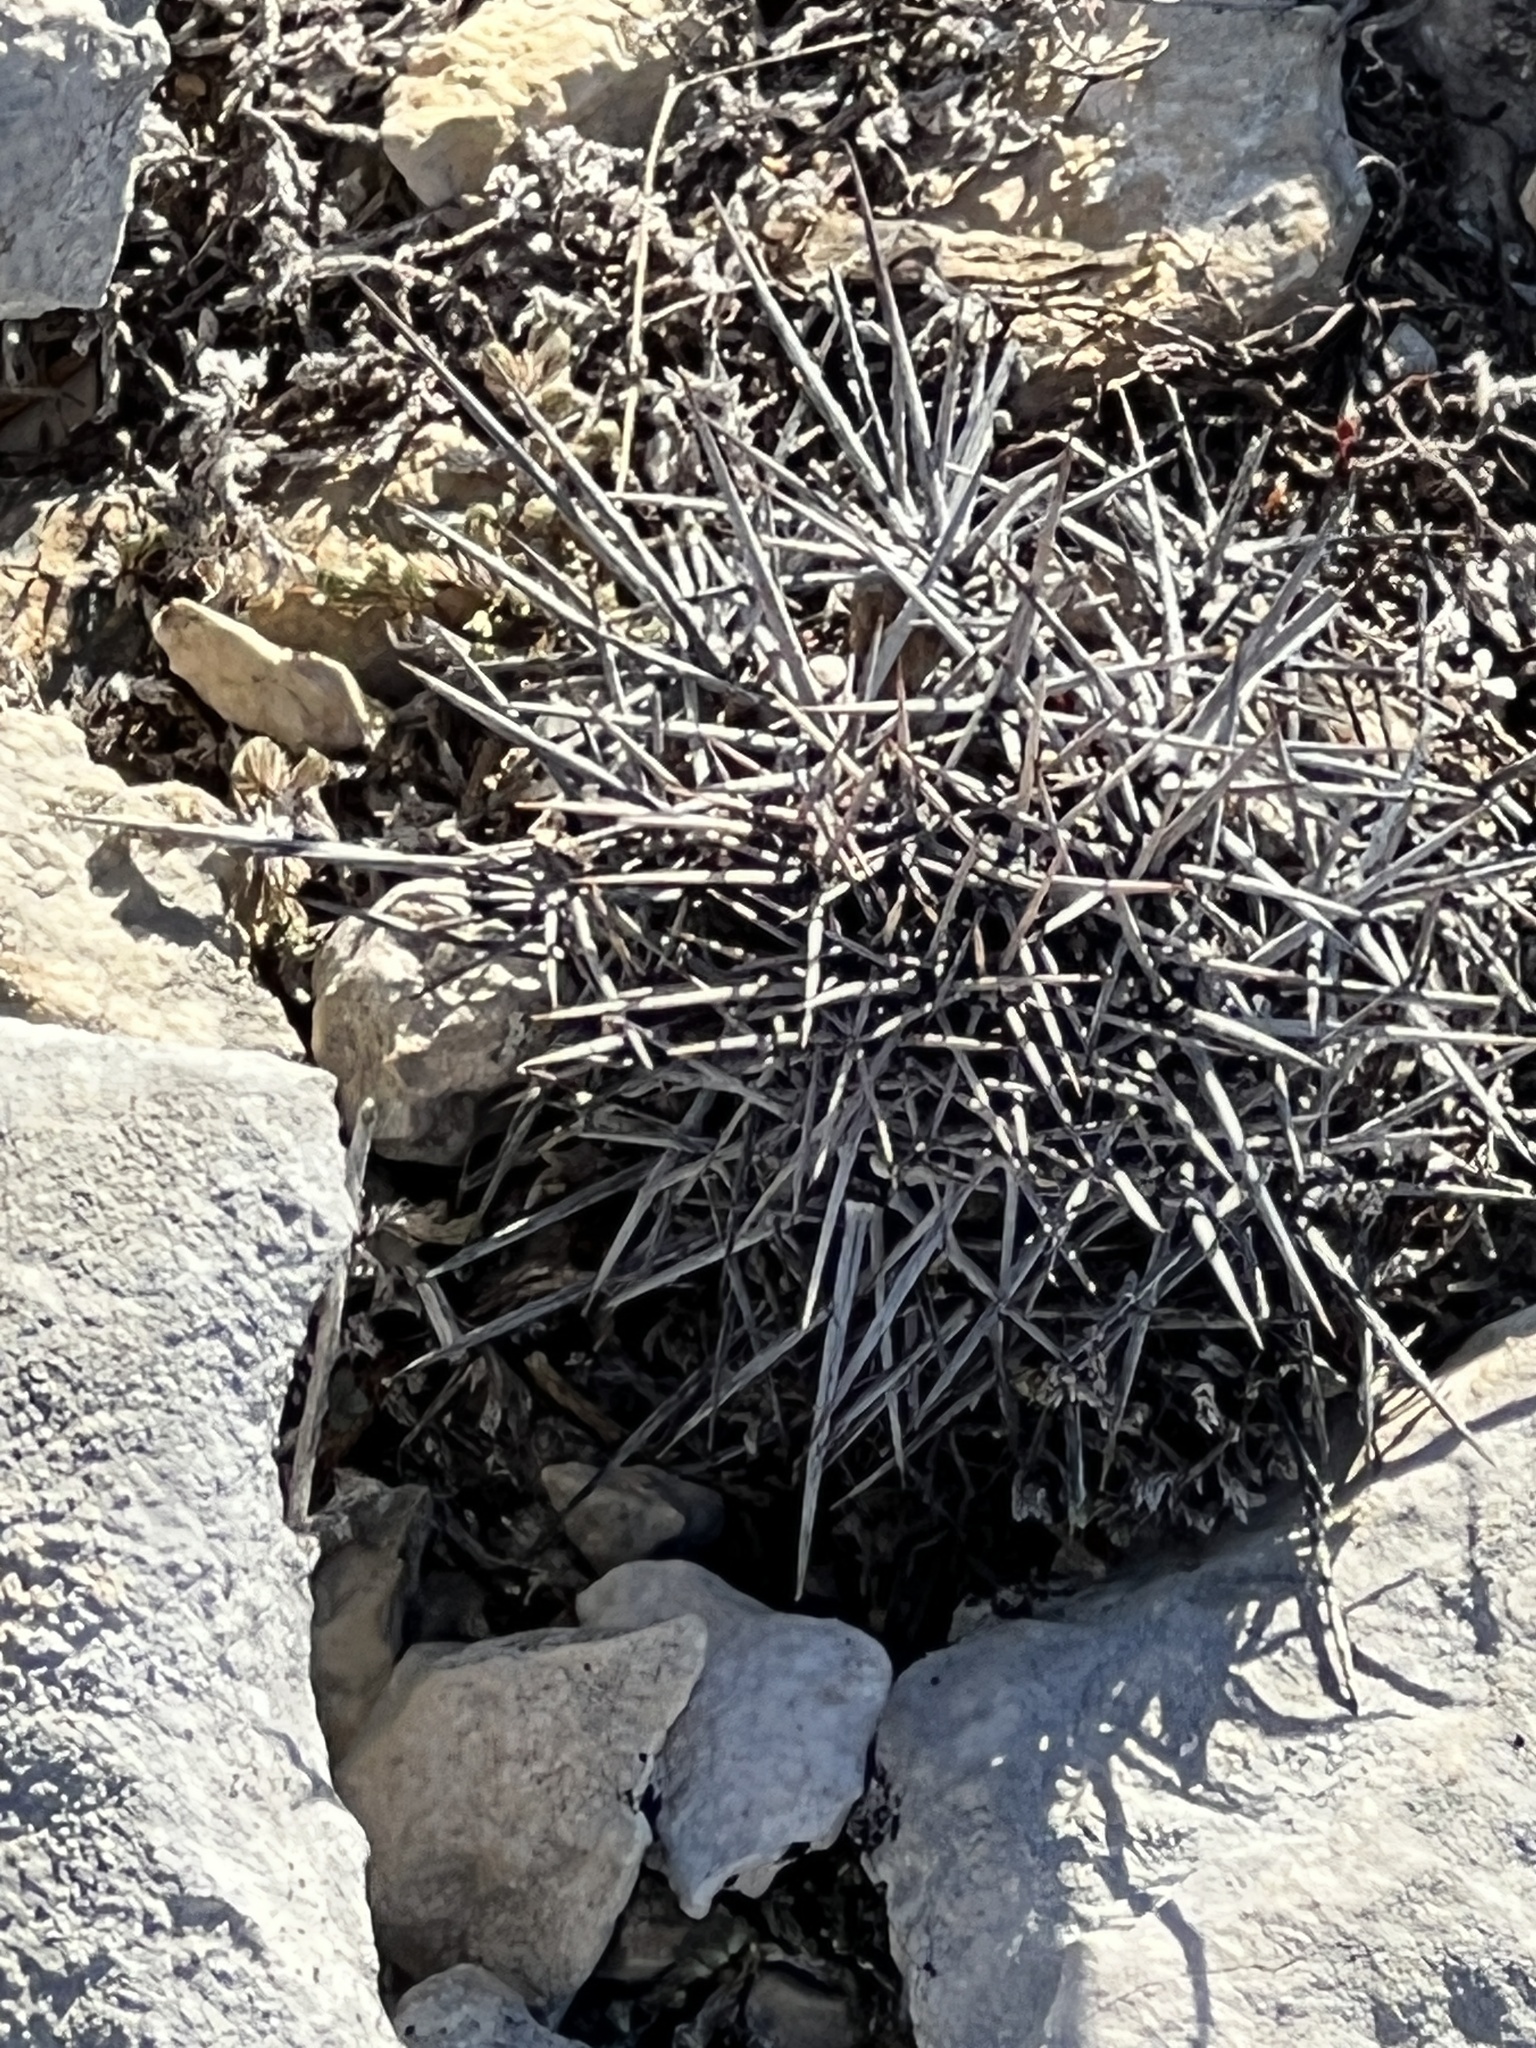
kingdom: Plantae
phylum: Tracheophyta
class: Magnoliopsida
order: Caryophyllales
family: Cactaceae
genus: Echinocereus
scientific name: Echinocereus coccineus
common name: Scarlet hedgehog cactus
